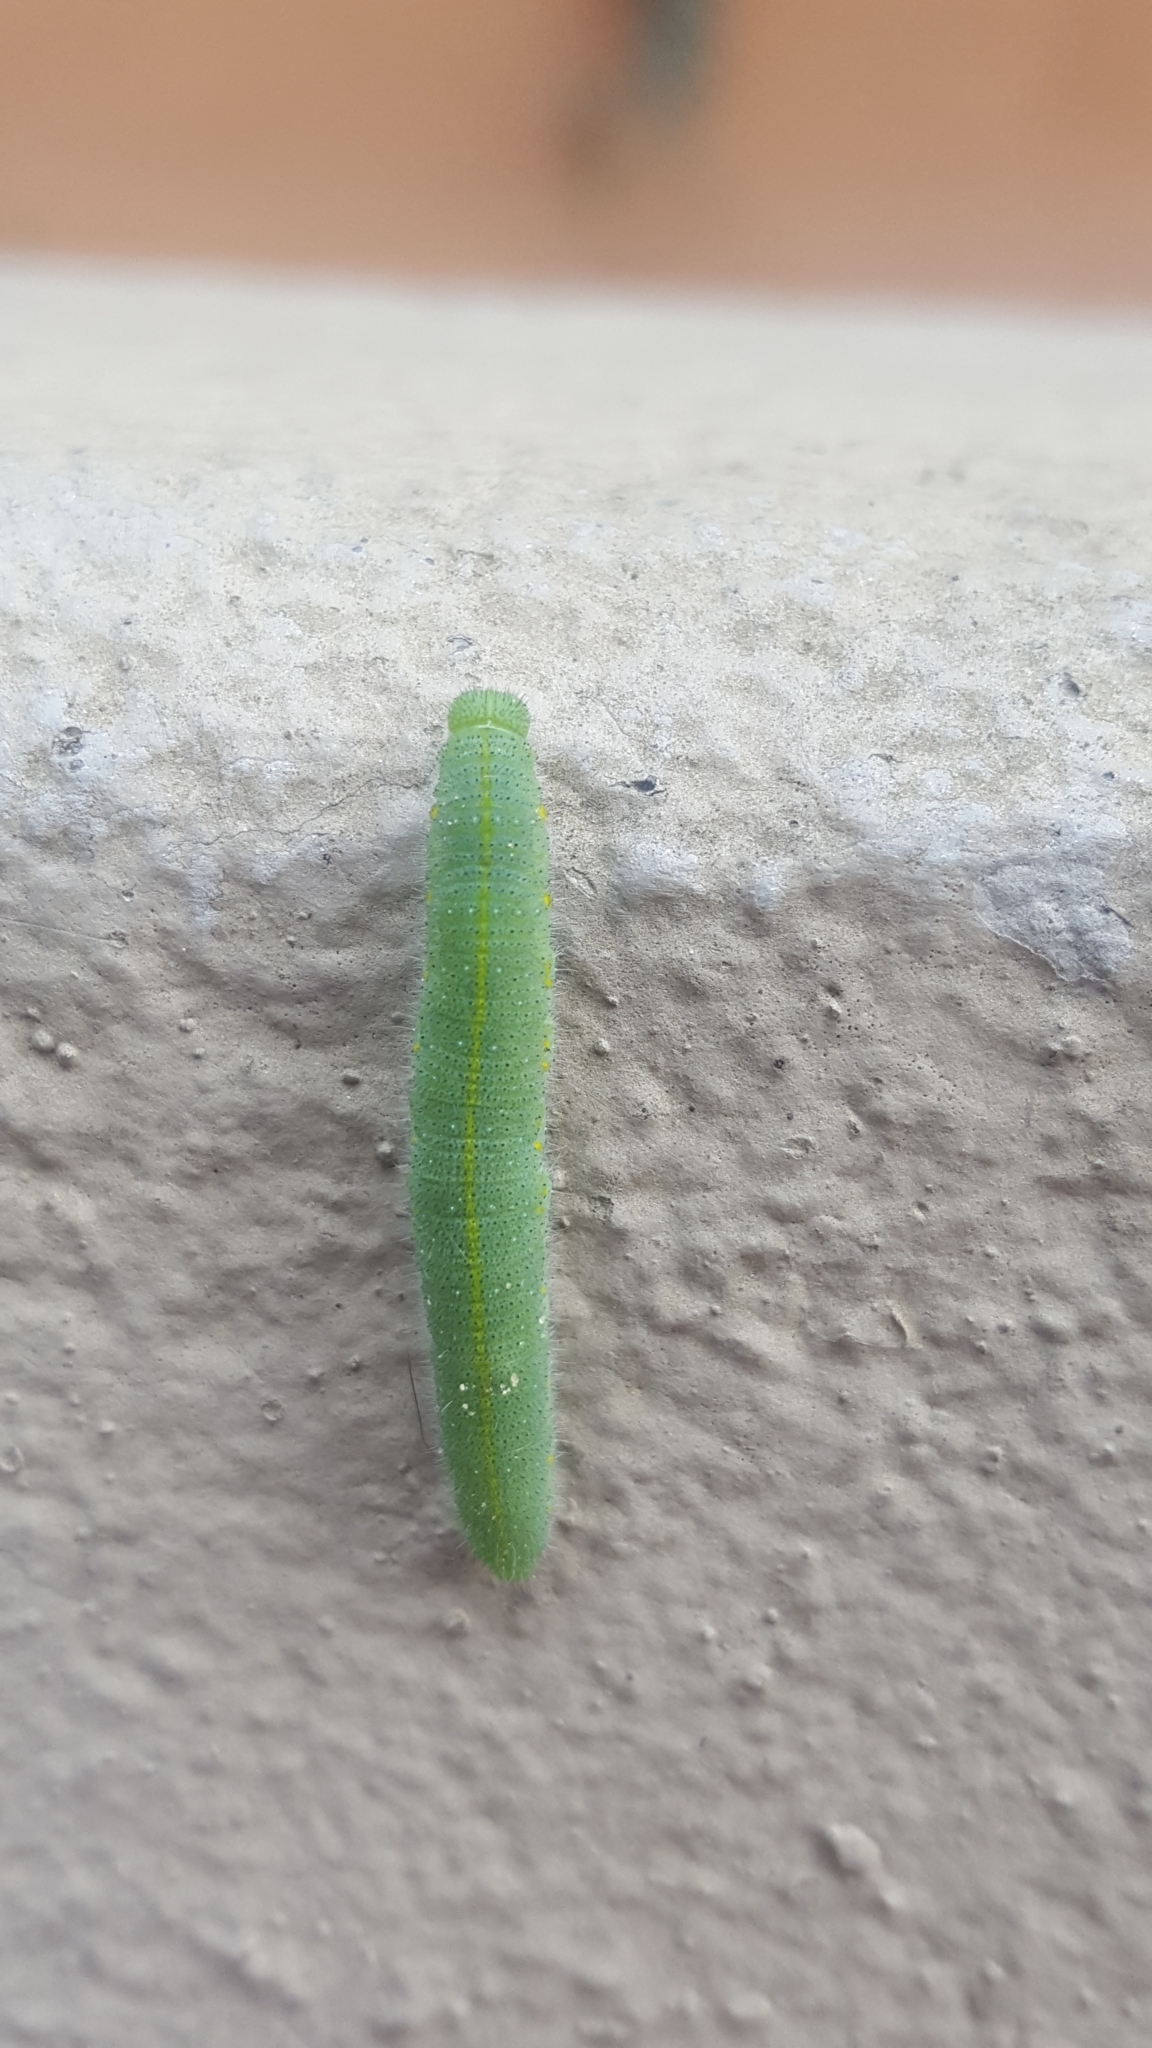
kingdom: Animalia
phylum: Arthropoda
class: Insecta
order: Lepidoptera
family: Pieridae
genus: Pieris
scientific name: Pieris rapae
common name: Small white
